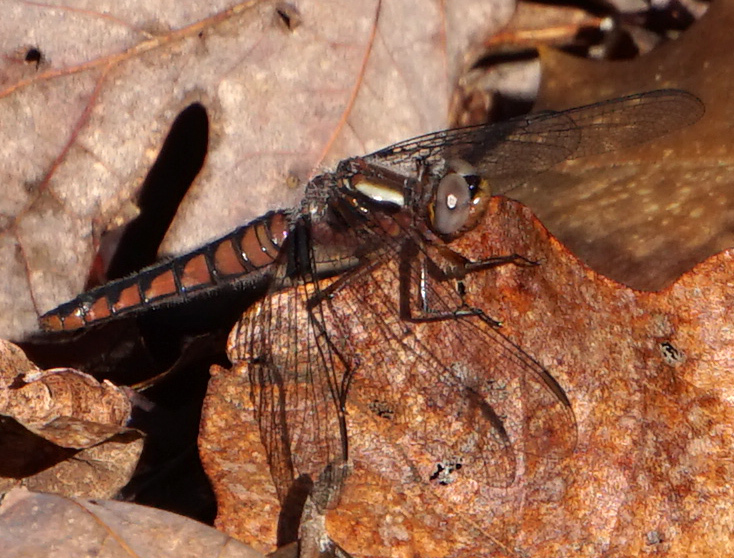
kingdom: Animalia
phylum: Arthropoda
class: Insecta
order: Odonata
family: Libellulidae
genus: Ladona
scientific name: Ladona deplanata
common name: Blue corporal
